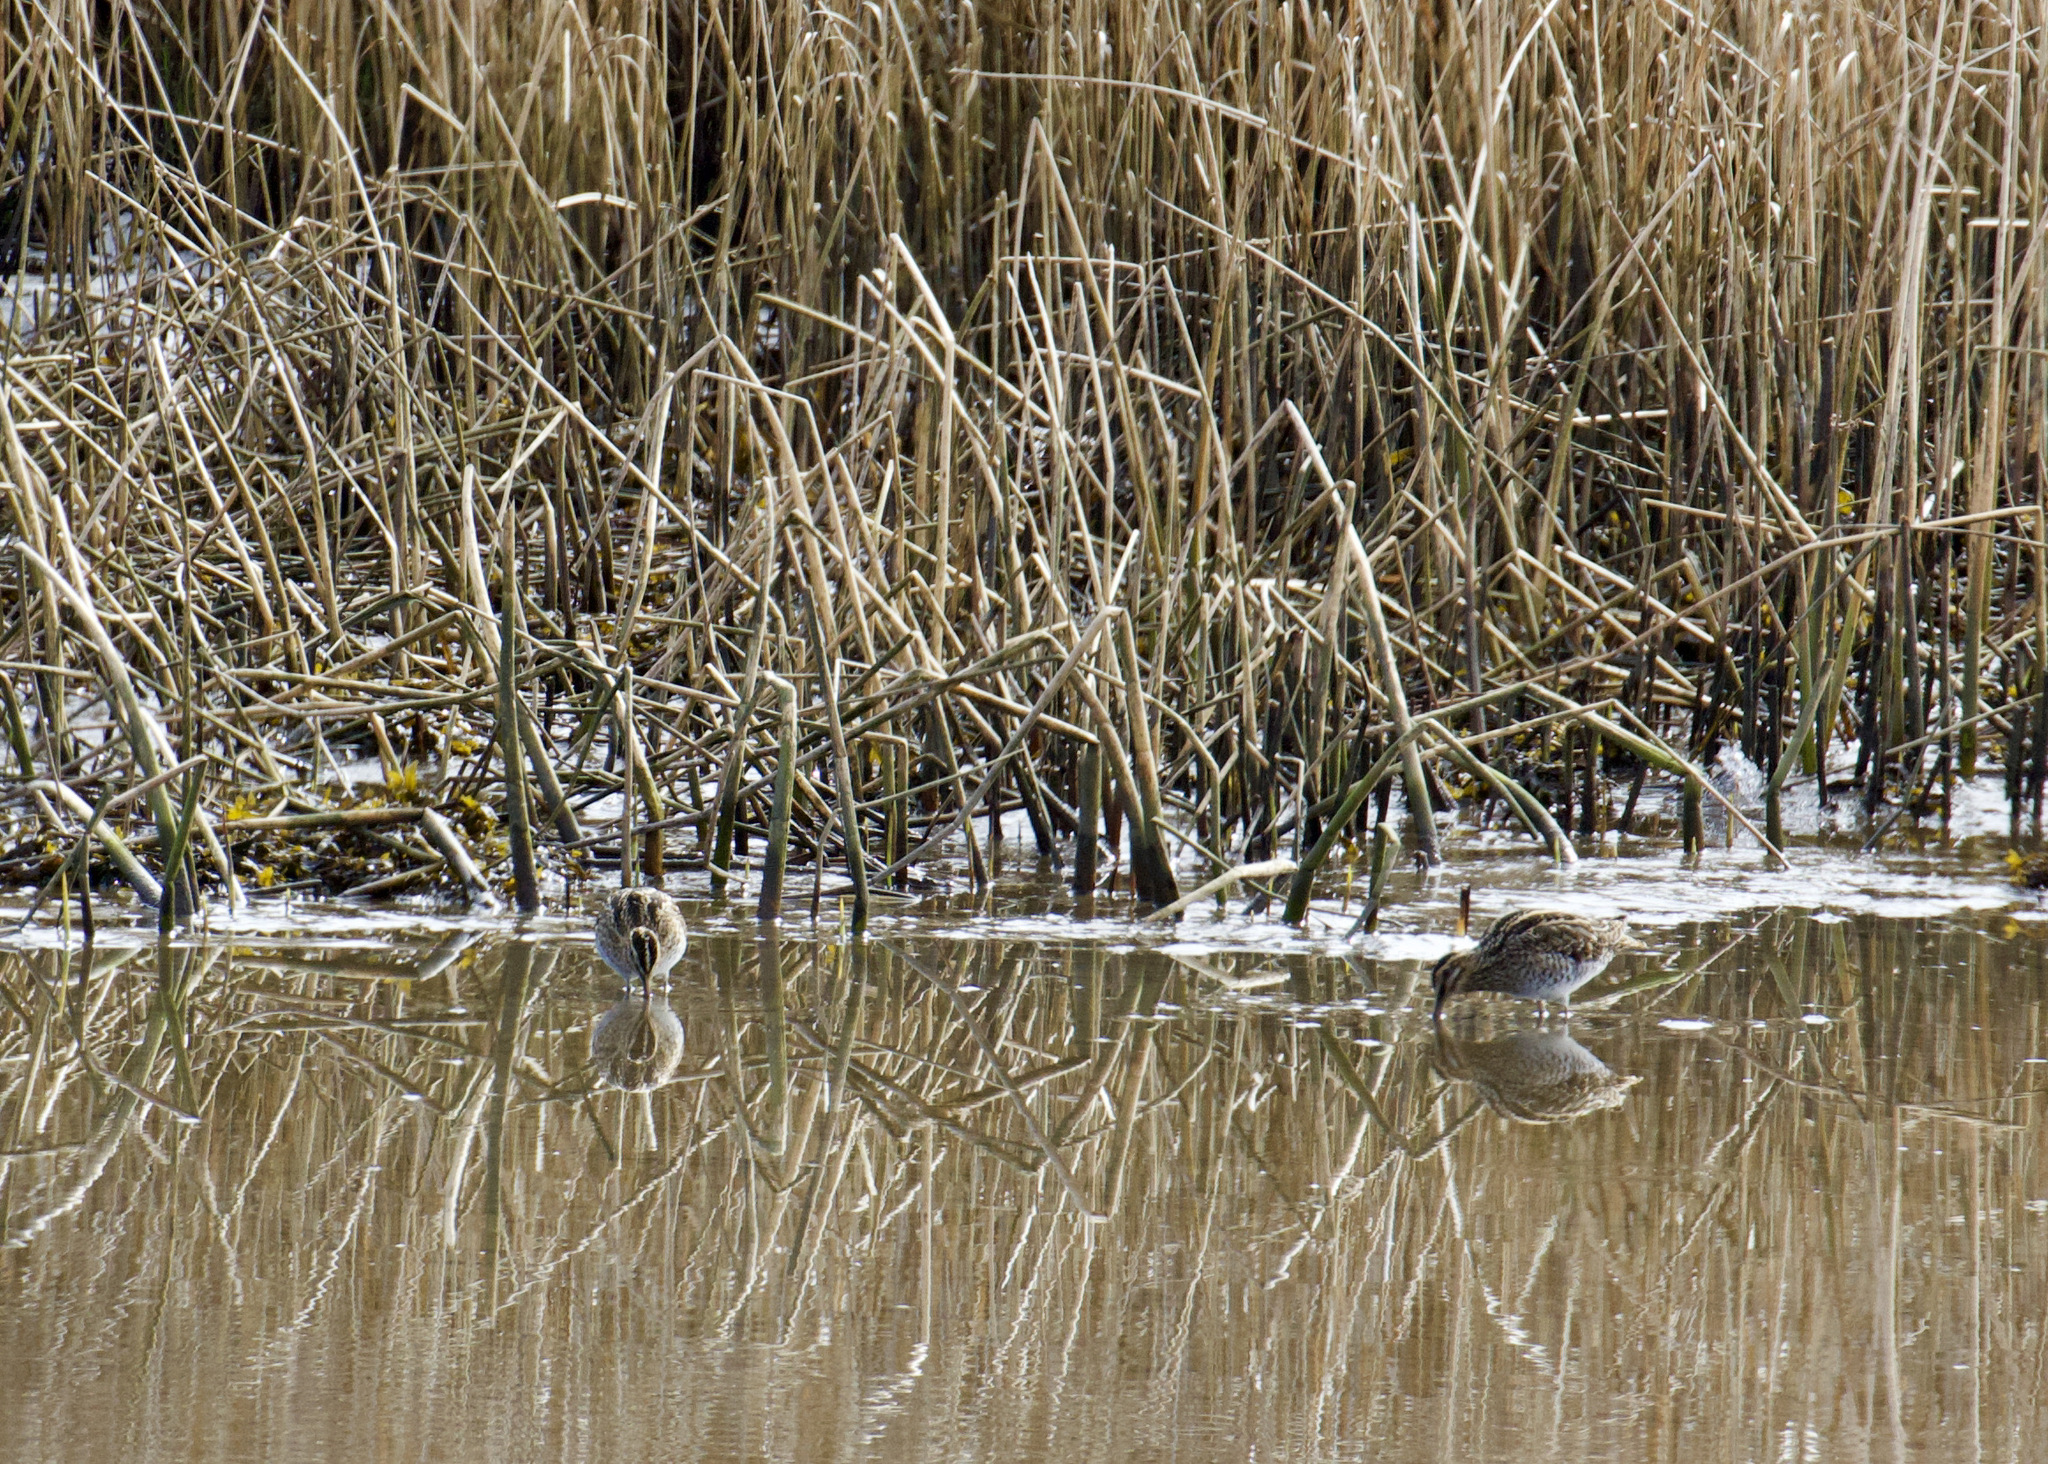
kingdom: Animalia
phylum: Chordata
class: Aves
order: Charadriiformes
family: Scolopacidae
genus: Gallinago
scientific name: Gallinago gallinago
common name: Common snipe
